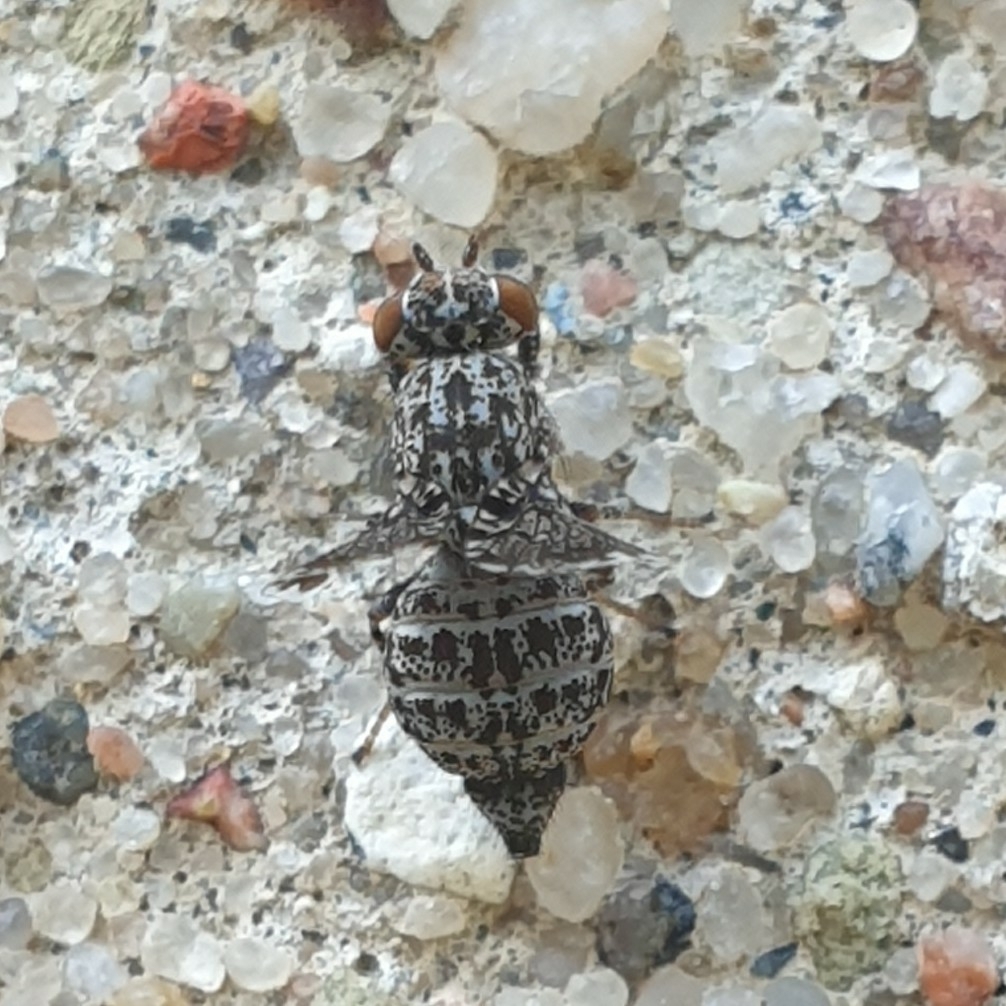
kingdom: Animalia
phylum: Arthropoda
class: Insecta
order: Diptera
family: Ulidiidae
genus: Callopistromyia
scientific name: Callopistromyia annulipes
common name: Peacock fly
